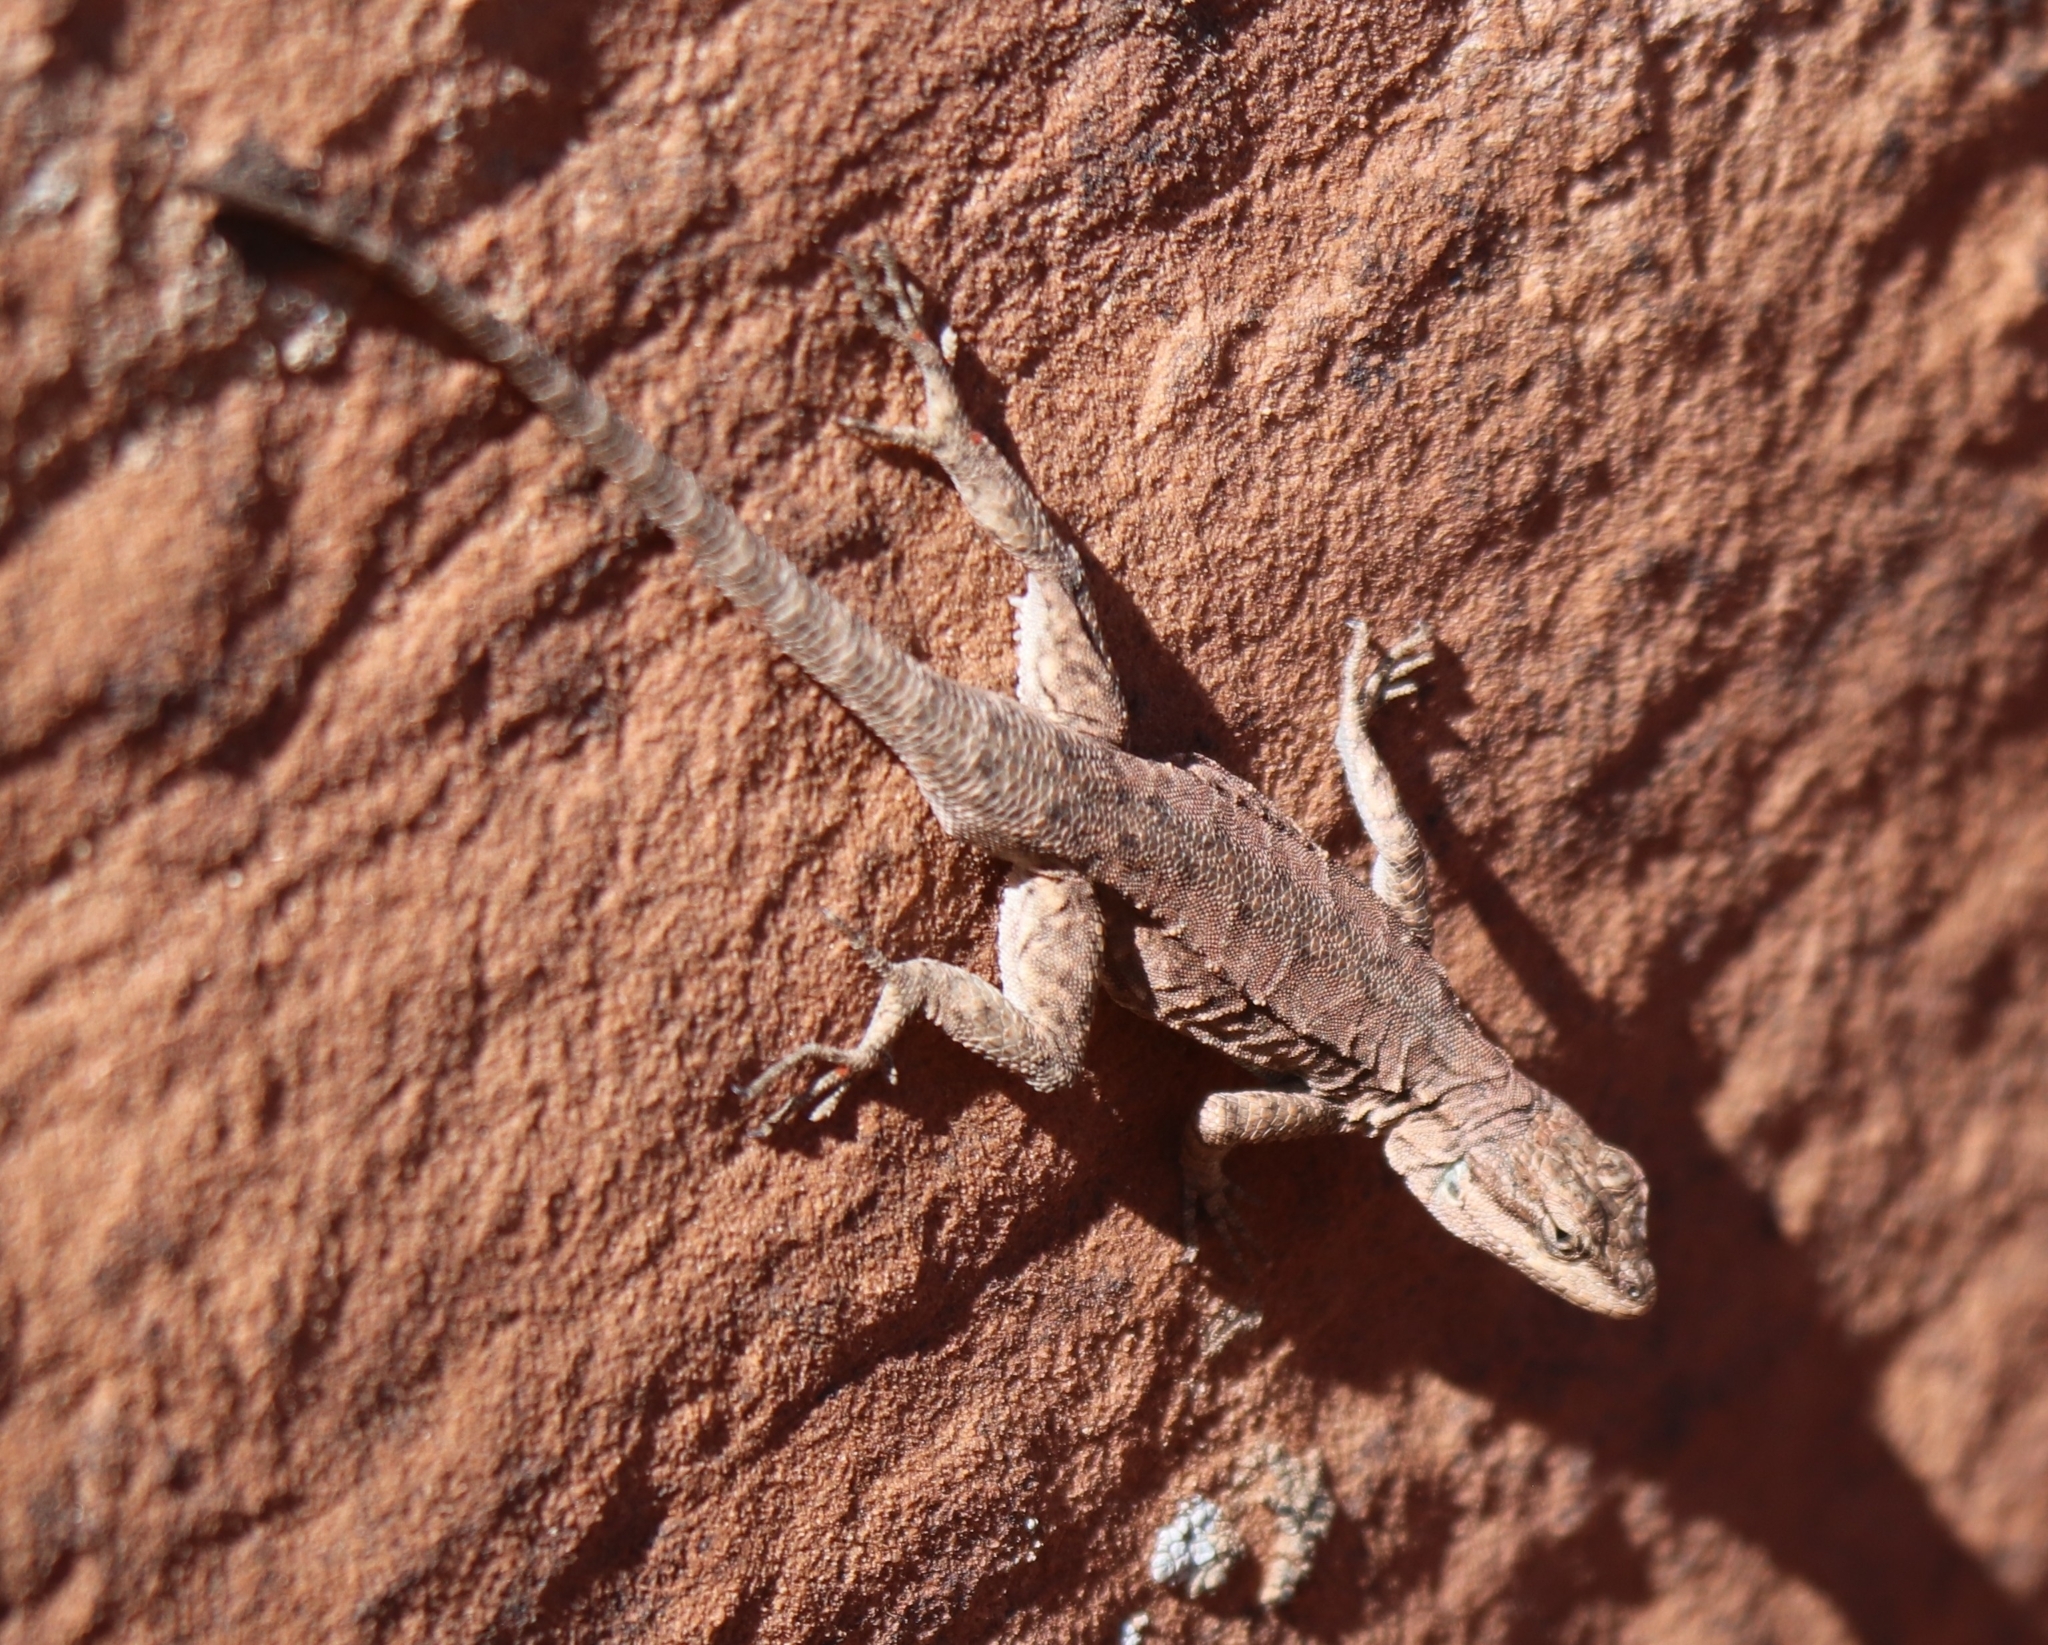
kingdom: Animalia
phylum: Chordata
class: Squamata
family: Phrynosomatidae
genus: Urosaurus
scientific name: Urosaurus ornatus
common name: Ornate tree lizard
